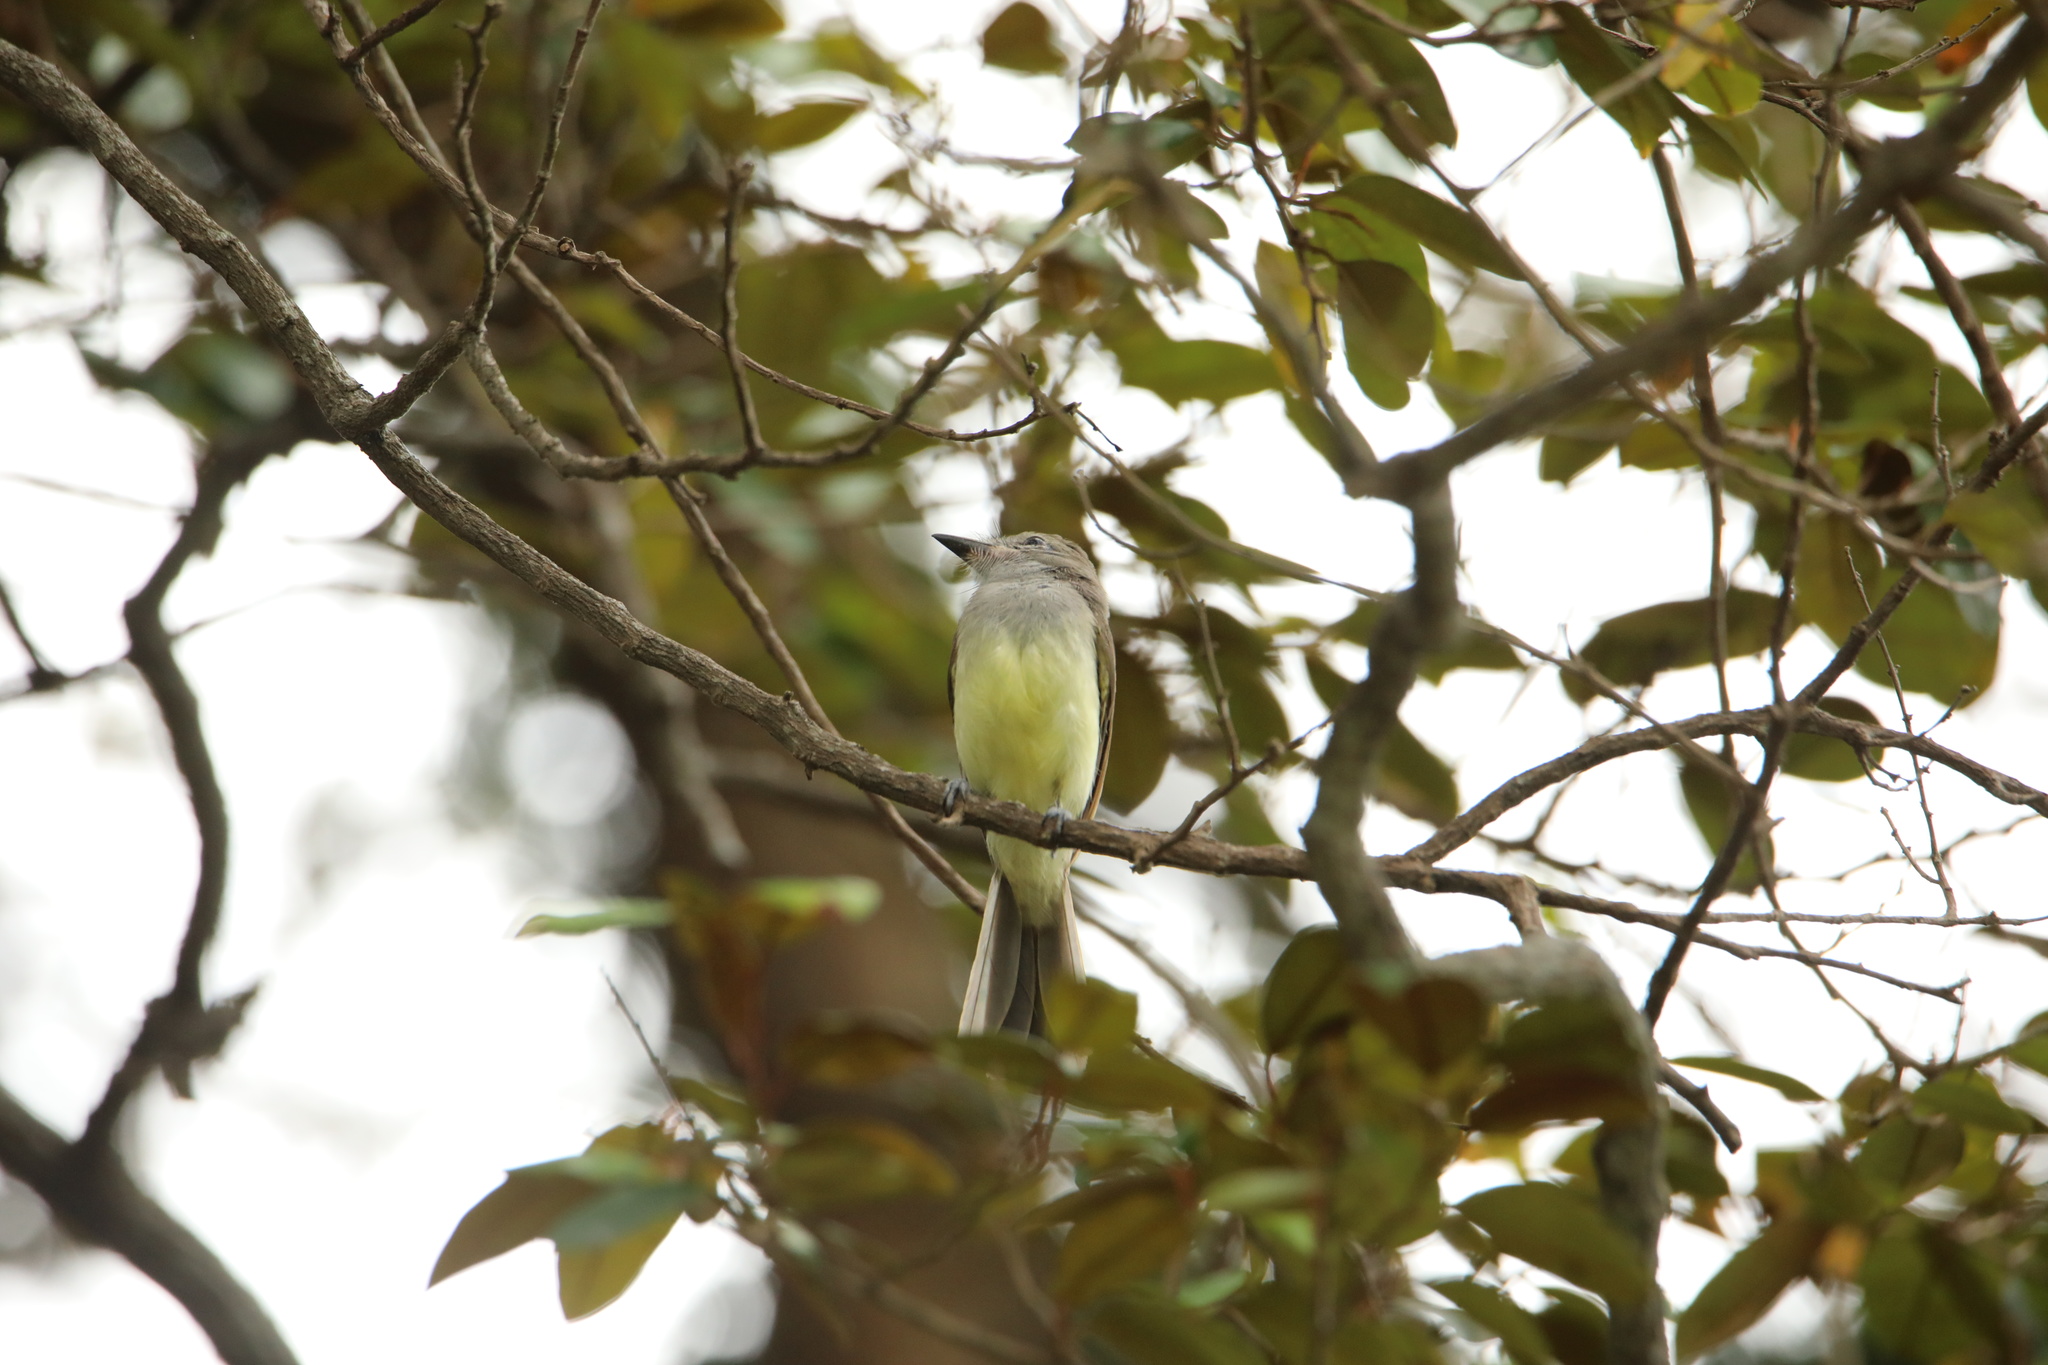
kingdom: Animalia
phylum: Chordata
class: Aves
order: Passeriformes
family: Tyrannidae
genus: Myiarchus
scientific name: Myiarchus panamensis
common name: Panama flycatcher
